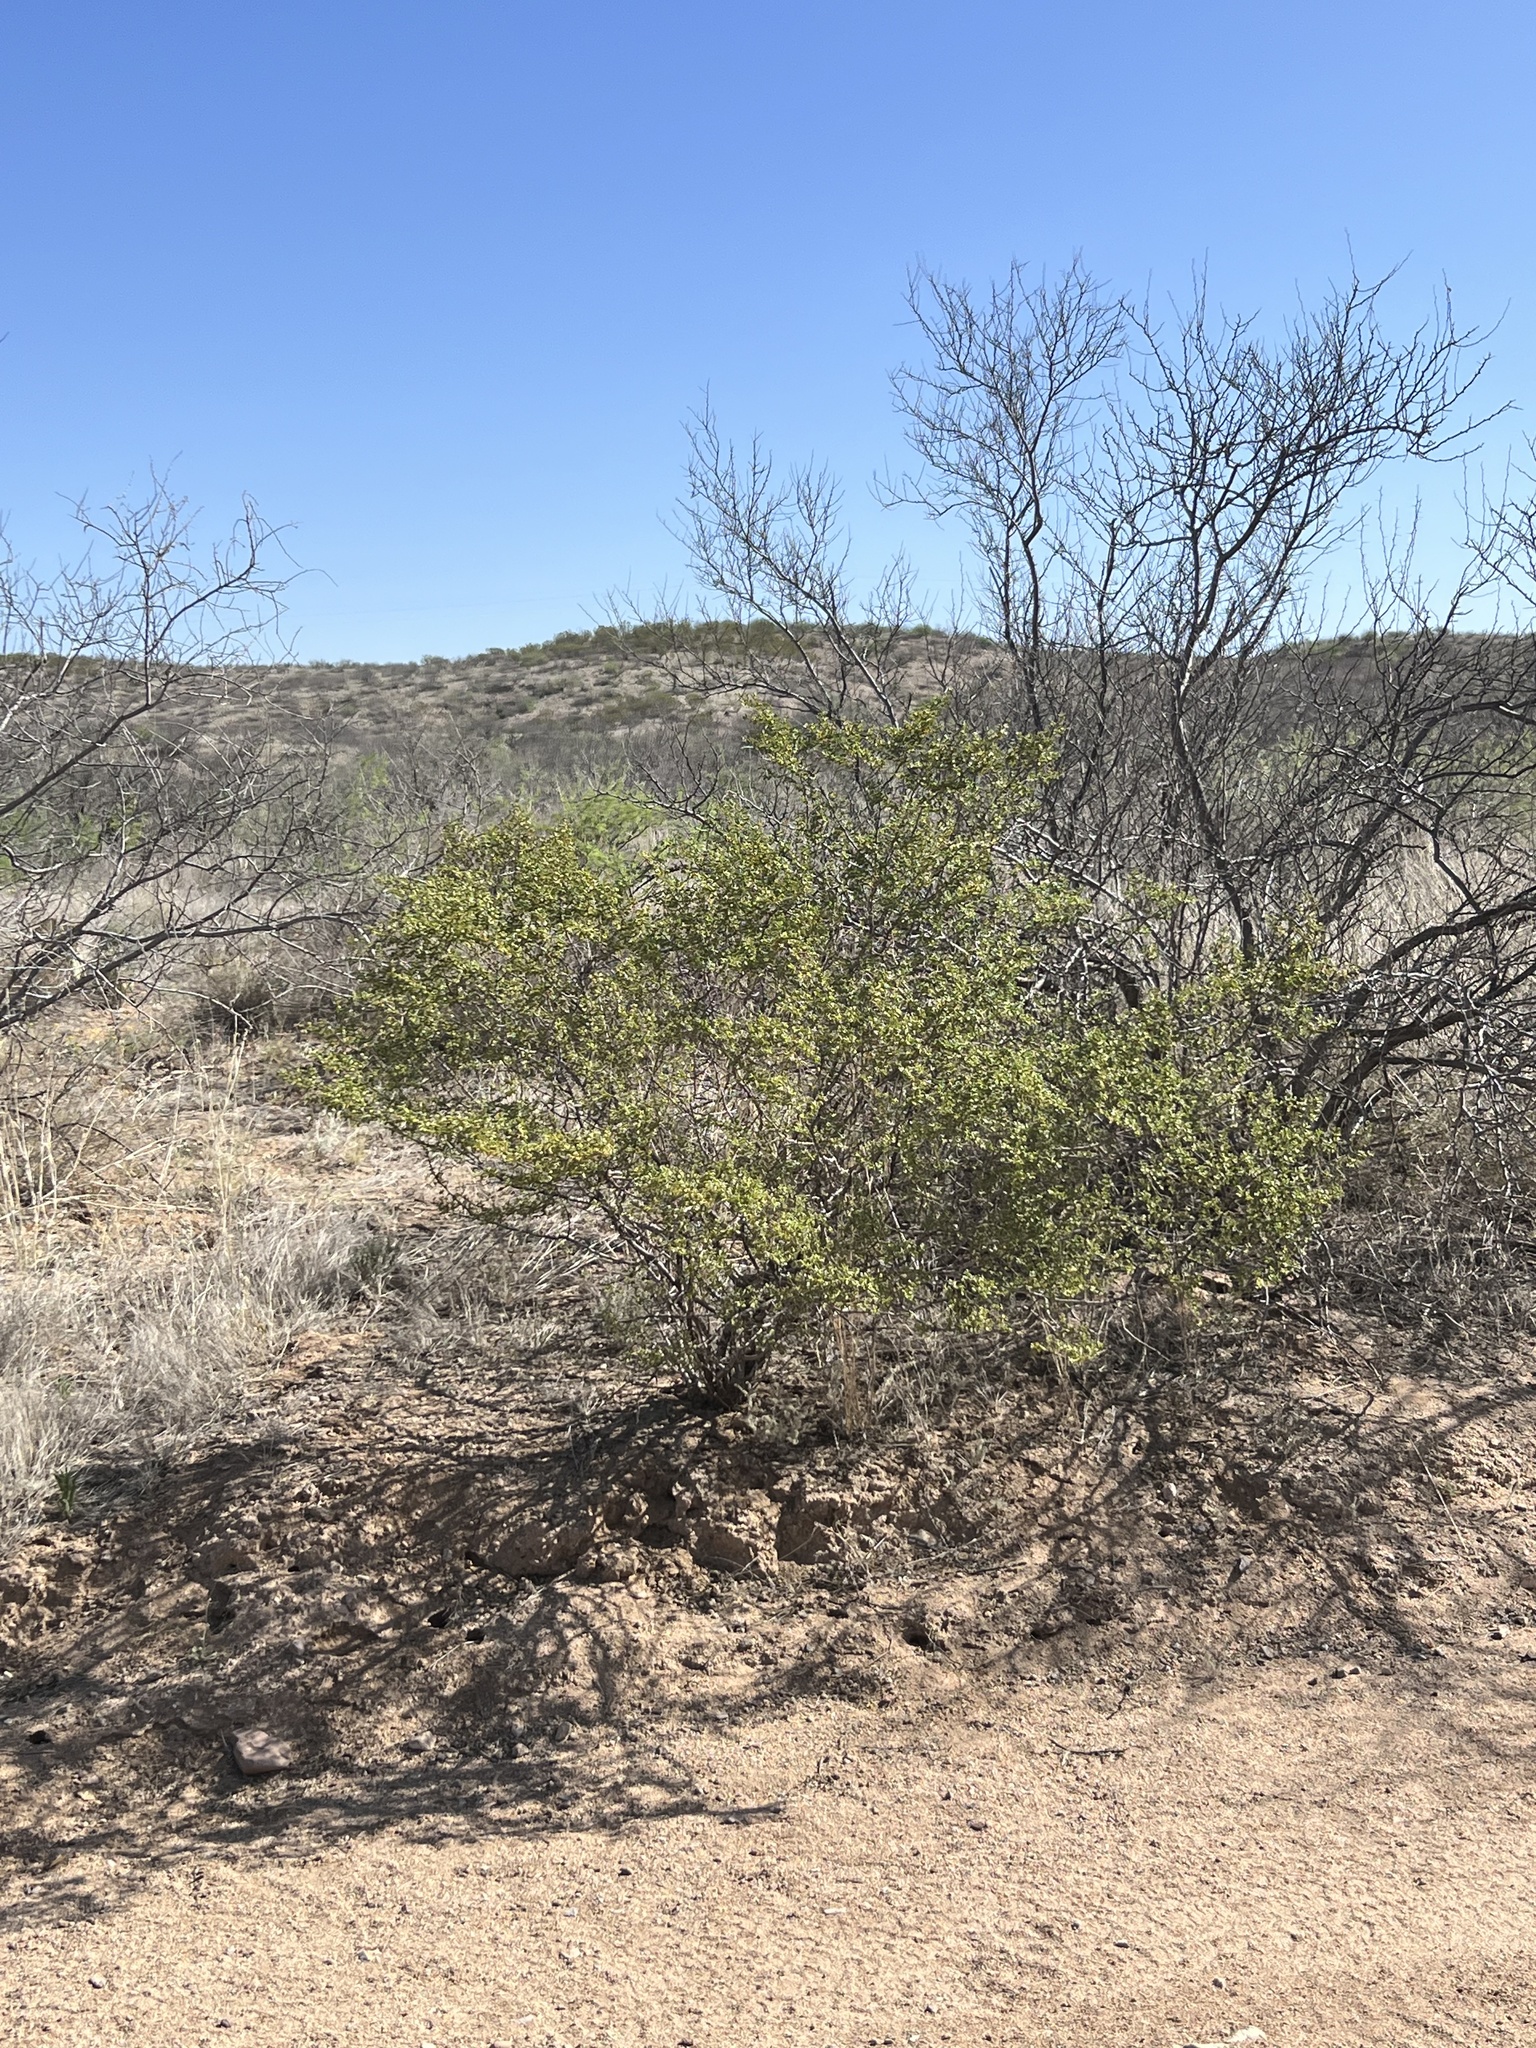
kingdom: Plantae
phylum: Tracheophyta
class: Magnoliopsida
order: Zygophyllales
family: Zygophyllaceae
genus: Larrea
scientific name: Larrea tridentata
